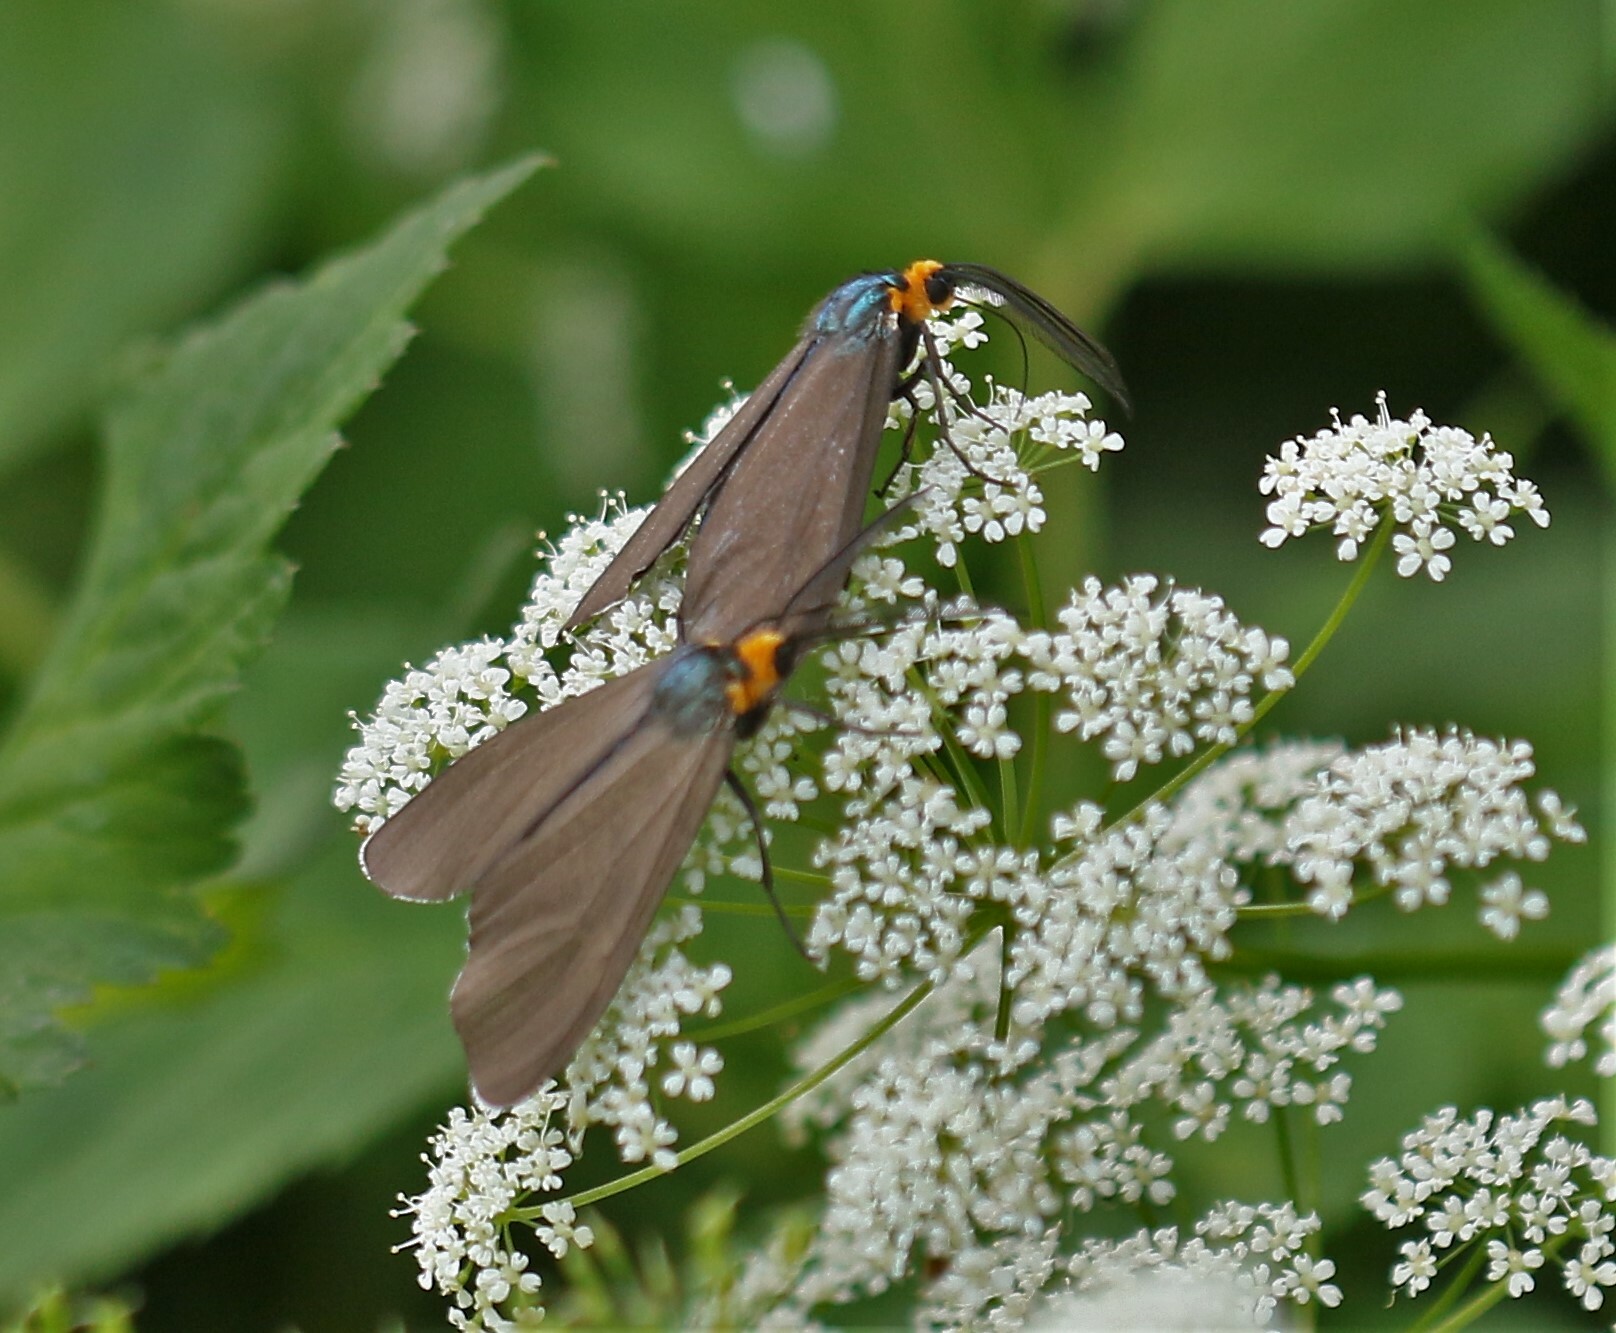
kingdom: Animalia
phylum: Arthropoda
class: Insecta
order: Lepidoptera
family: Erebidae
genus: Ctenucha
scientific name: Ctenucha virginica
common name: Virginia ctenucha moth
